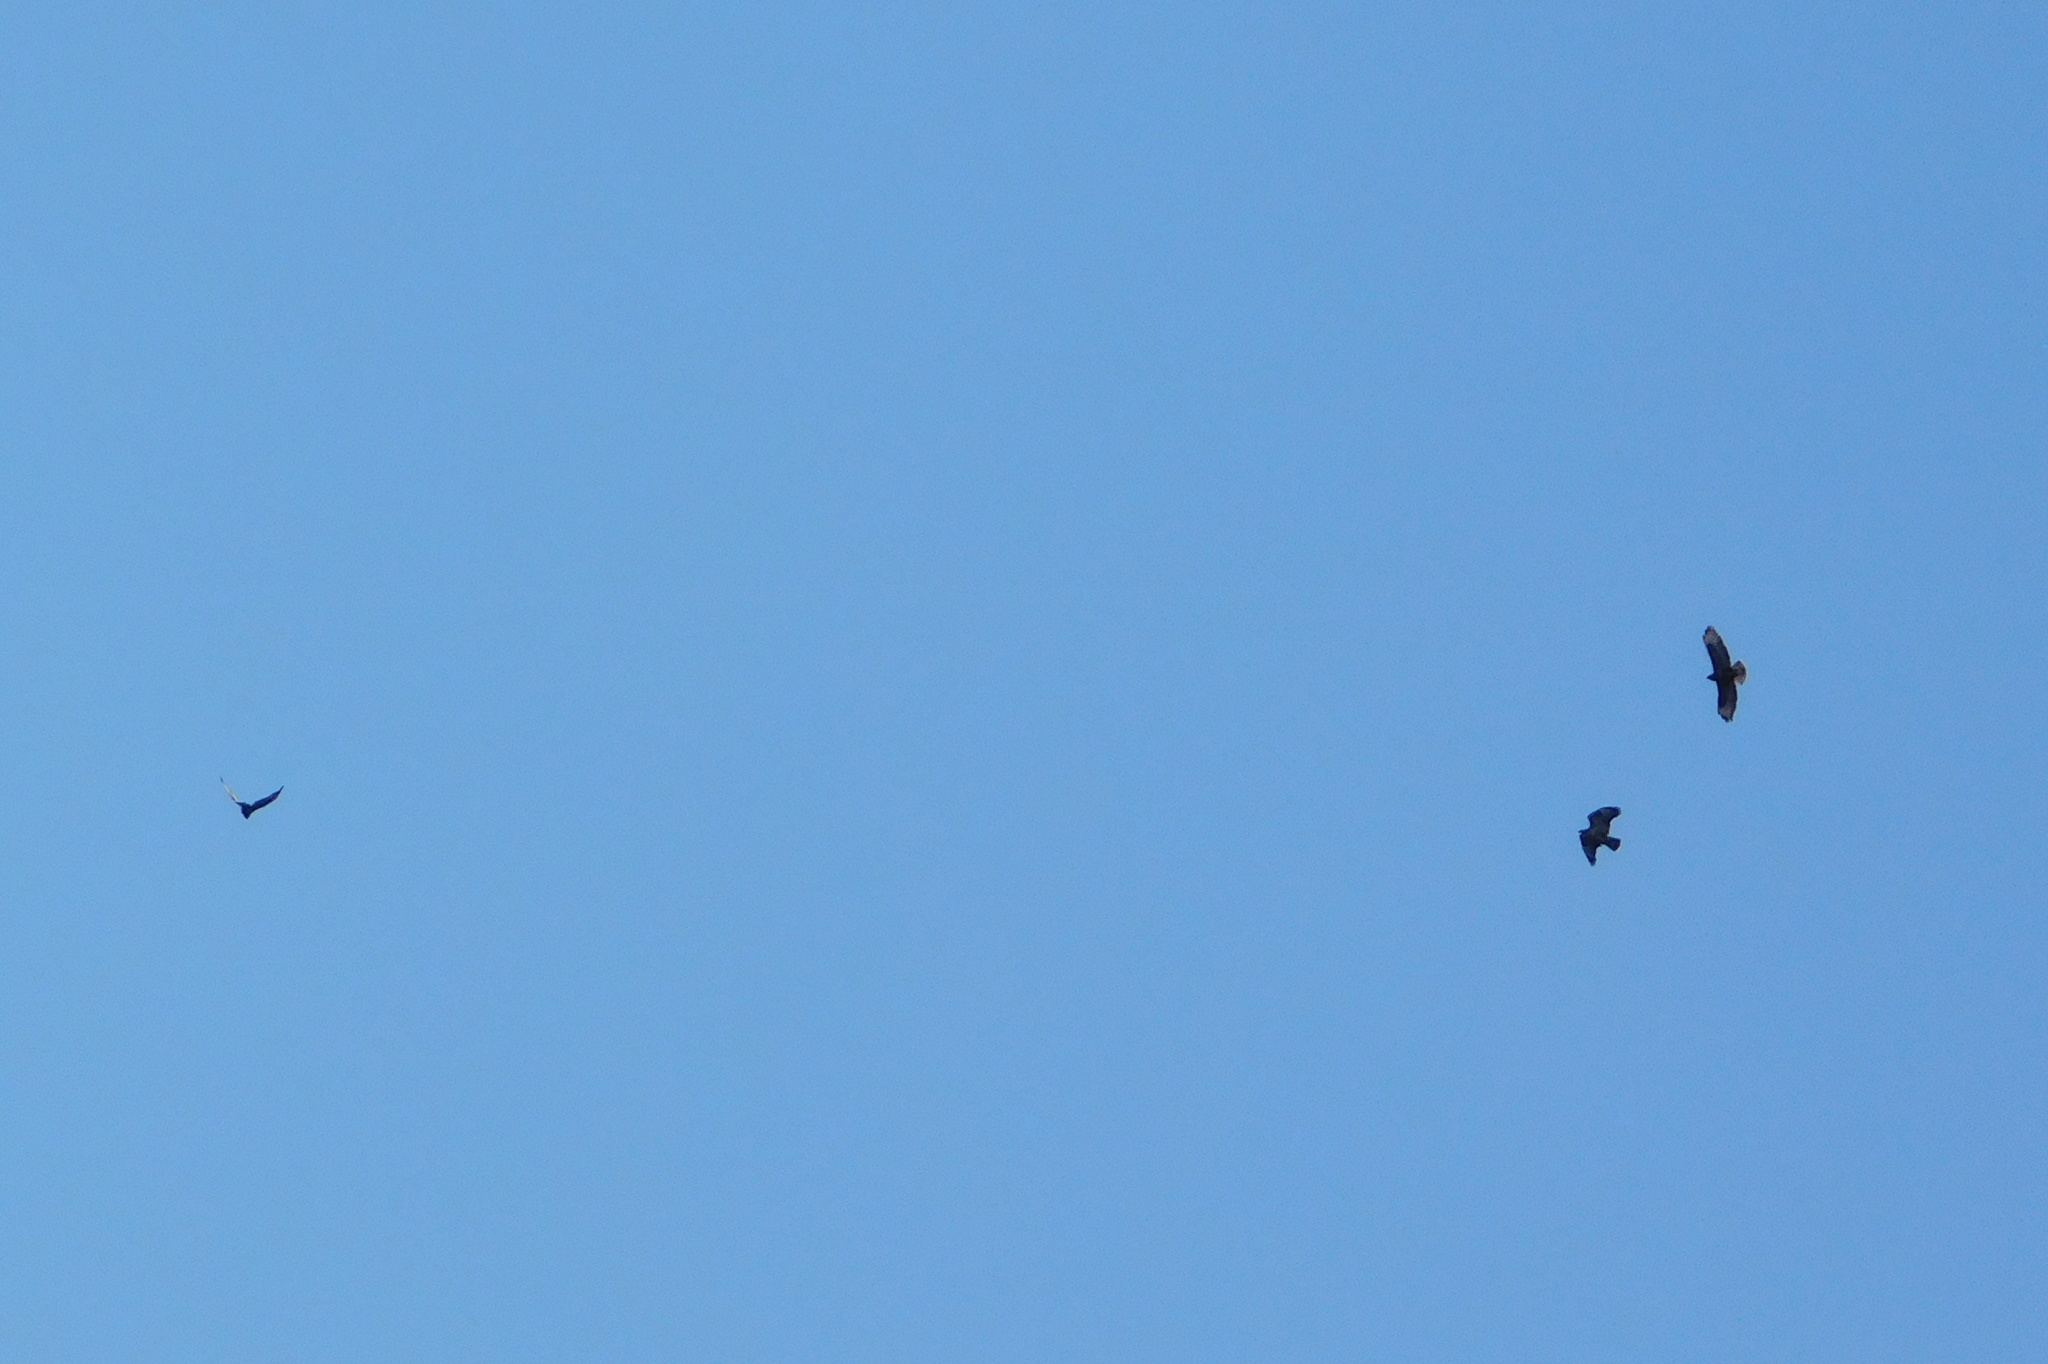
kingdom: Animalia
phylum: Chordata
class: Aves
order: Accipitriformes
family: Accipitridae
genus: Buteo
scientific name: Buteo buteo
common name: Common buzzard
